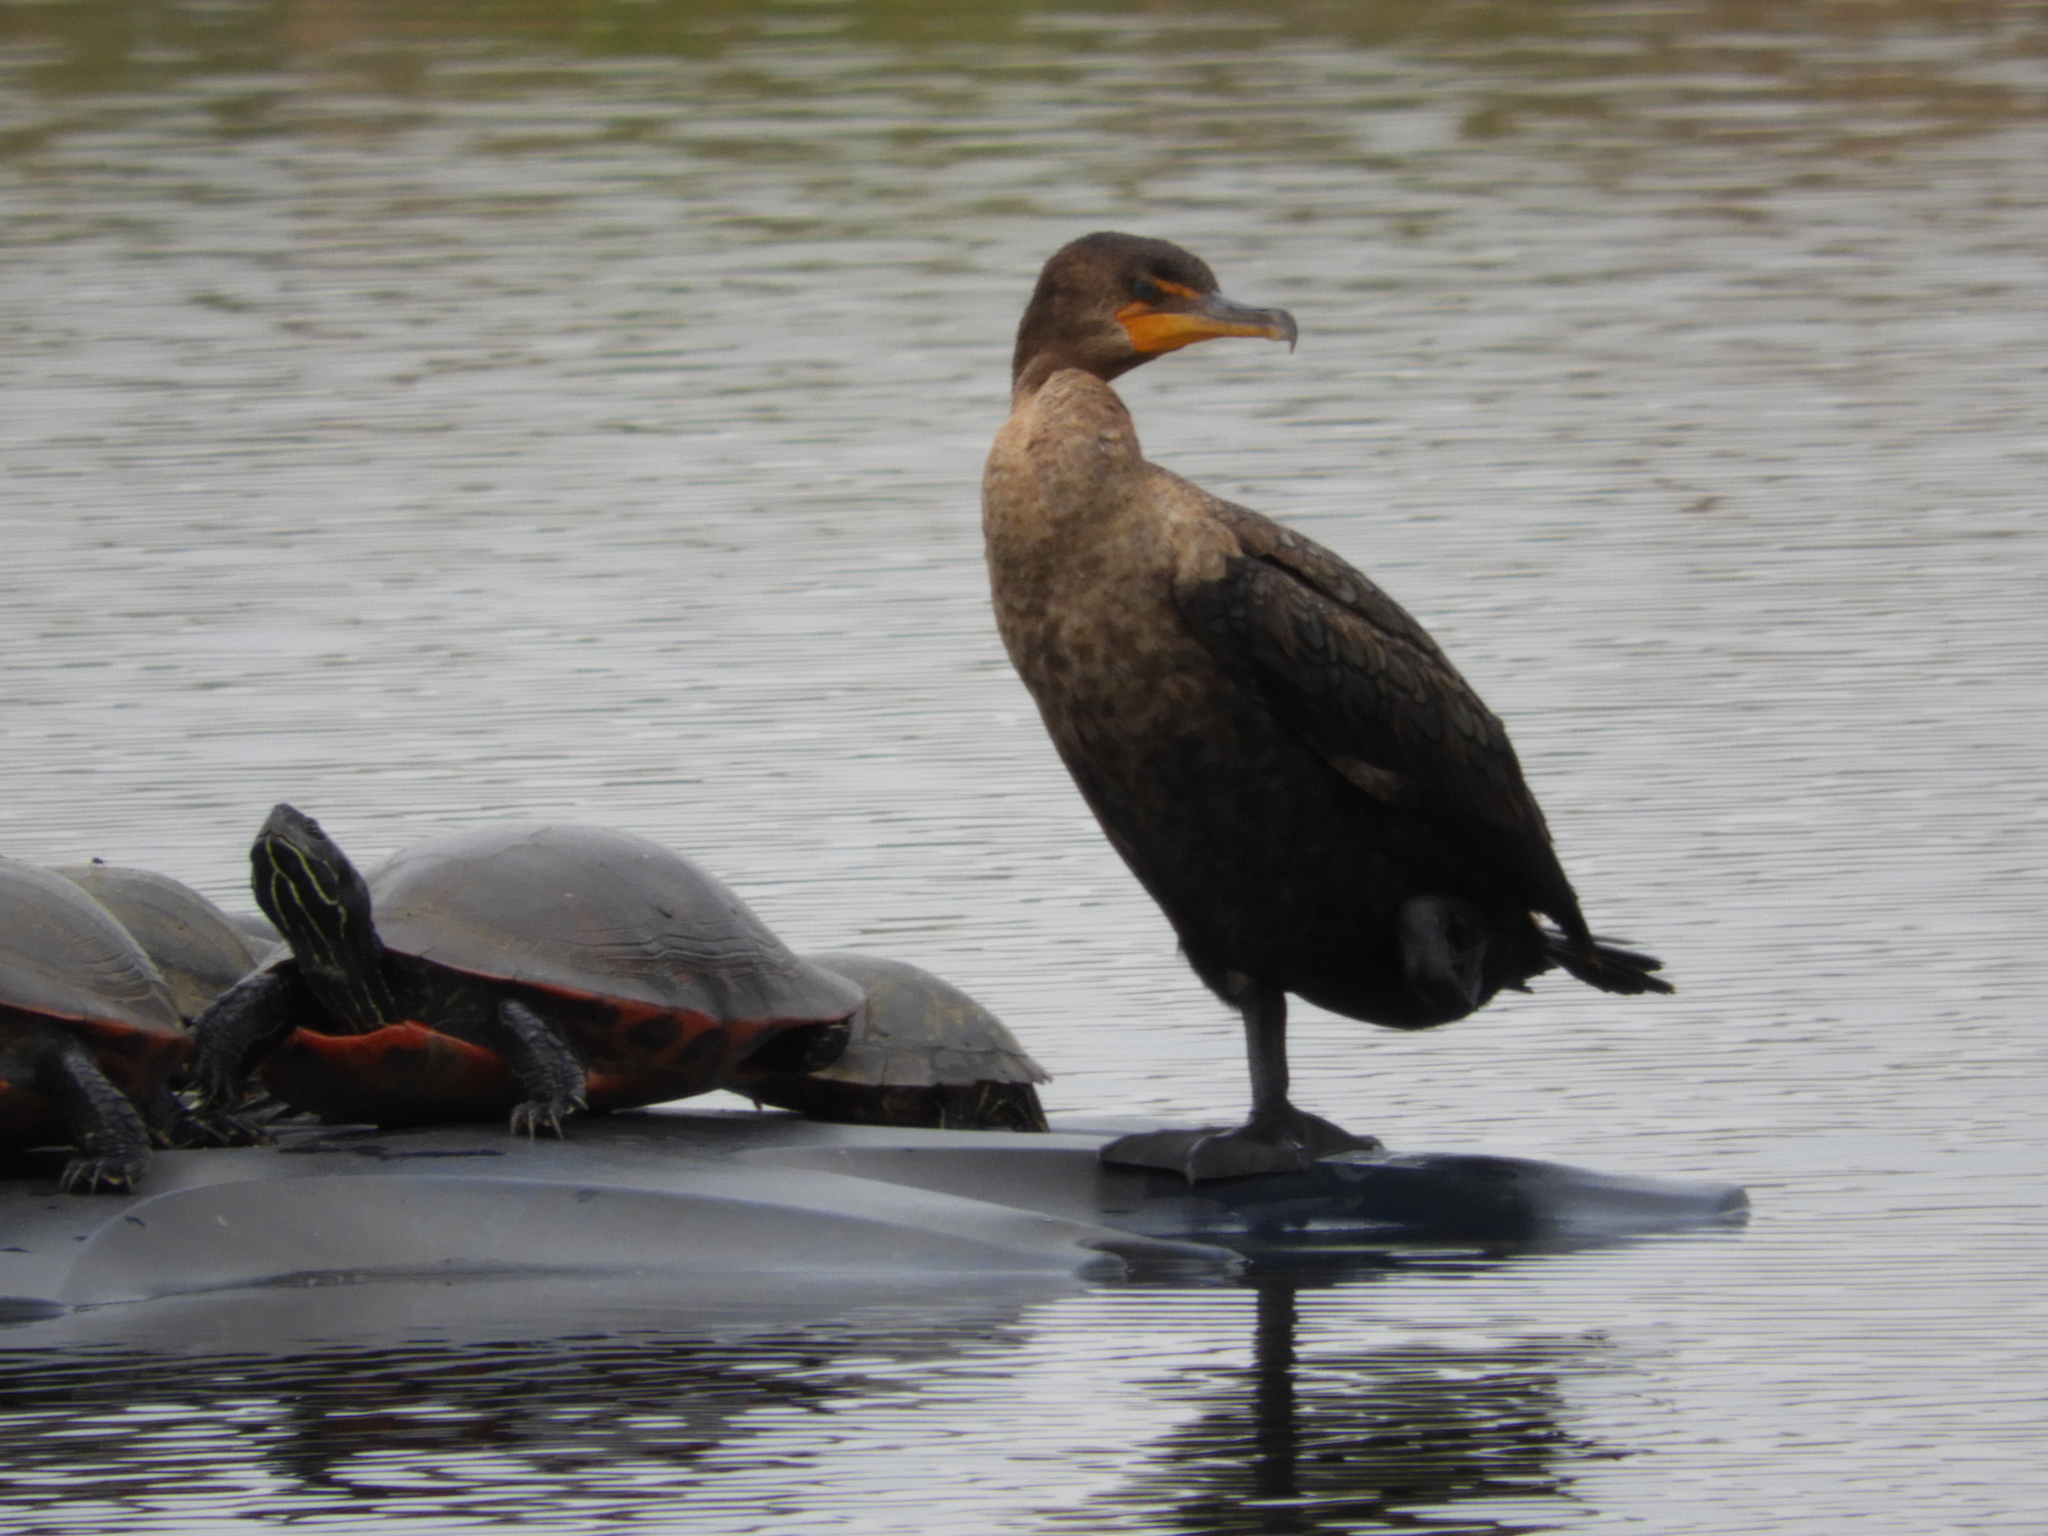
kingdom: Animalia
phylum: Chordata
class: Aves
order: Suliformes
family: Phalacrocoracidae
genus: Phalacrocorax
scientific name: Phalacrocorax auritus
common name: Double-crested cormorant
